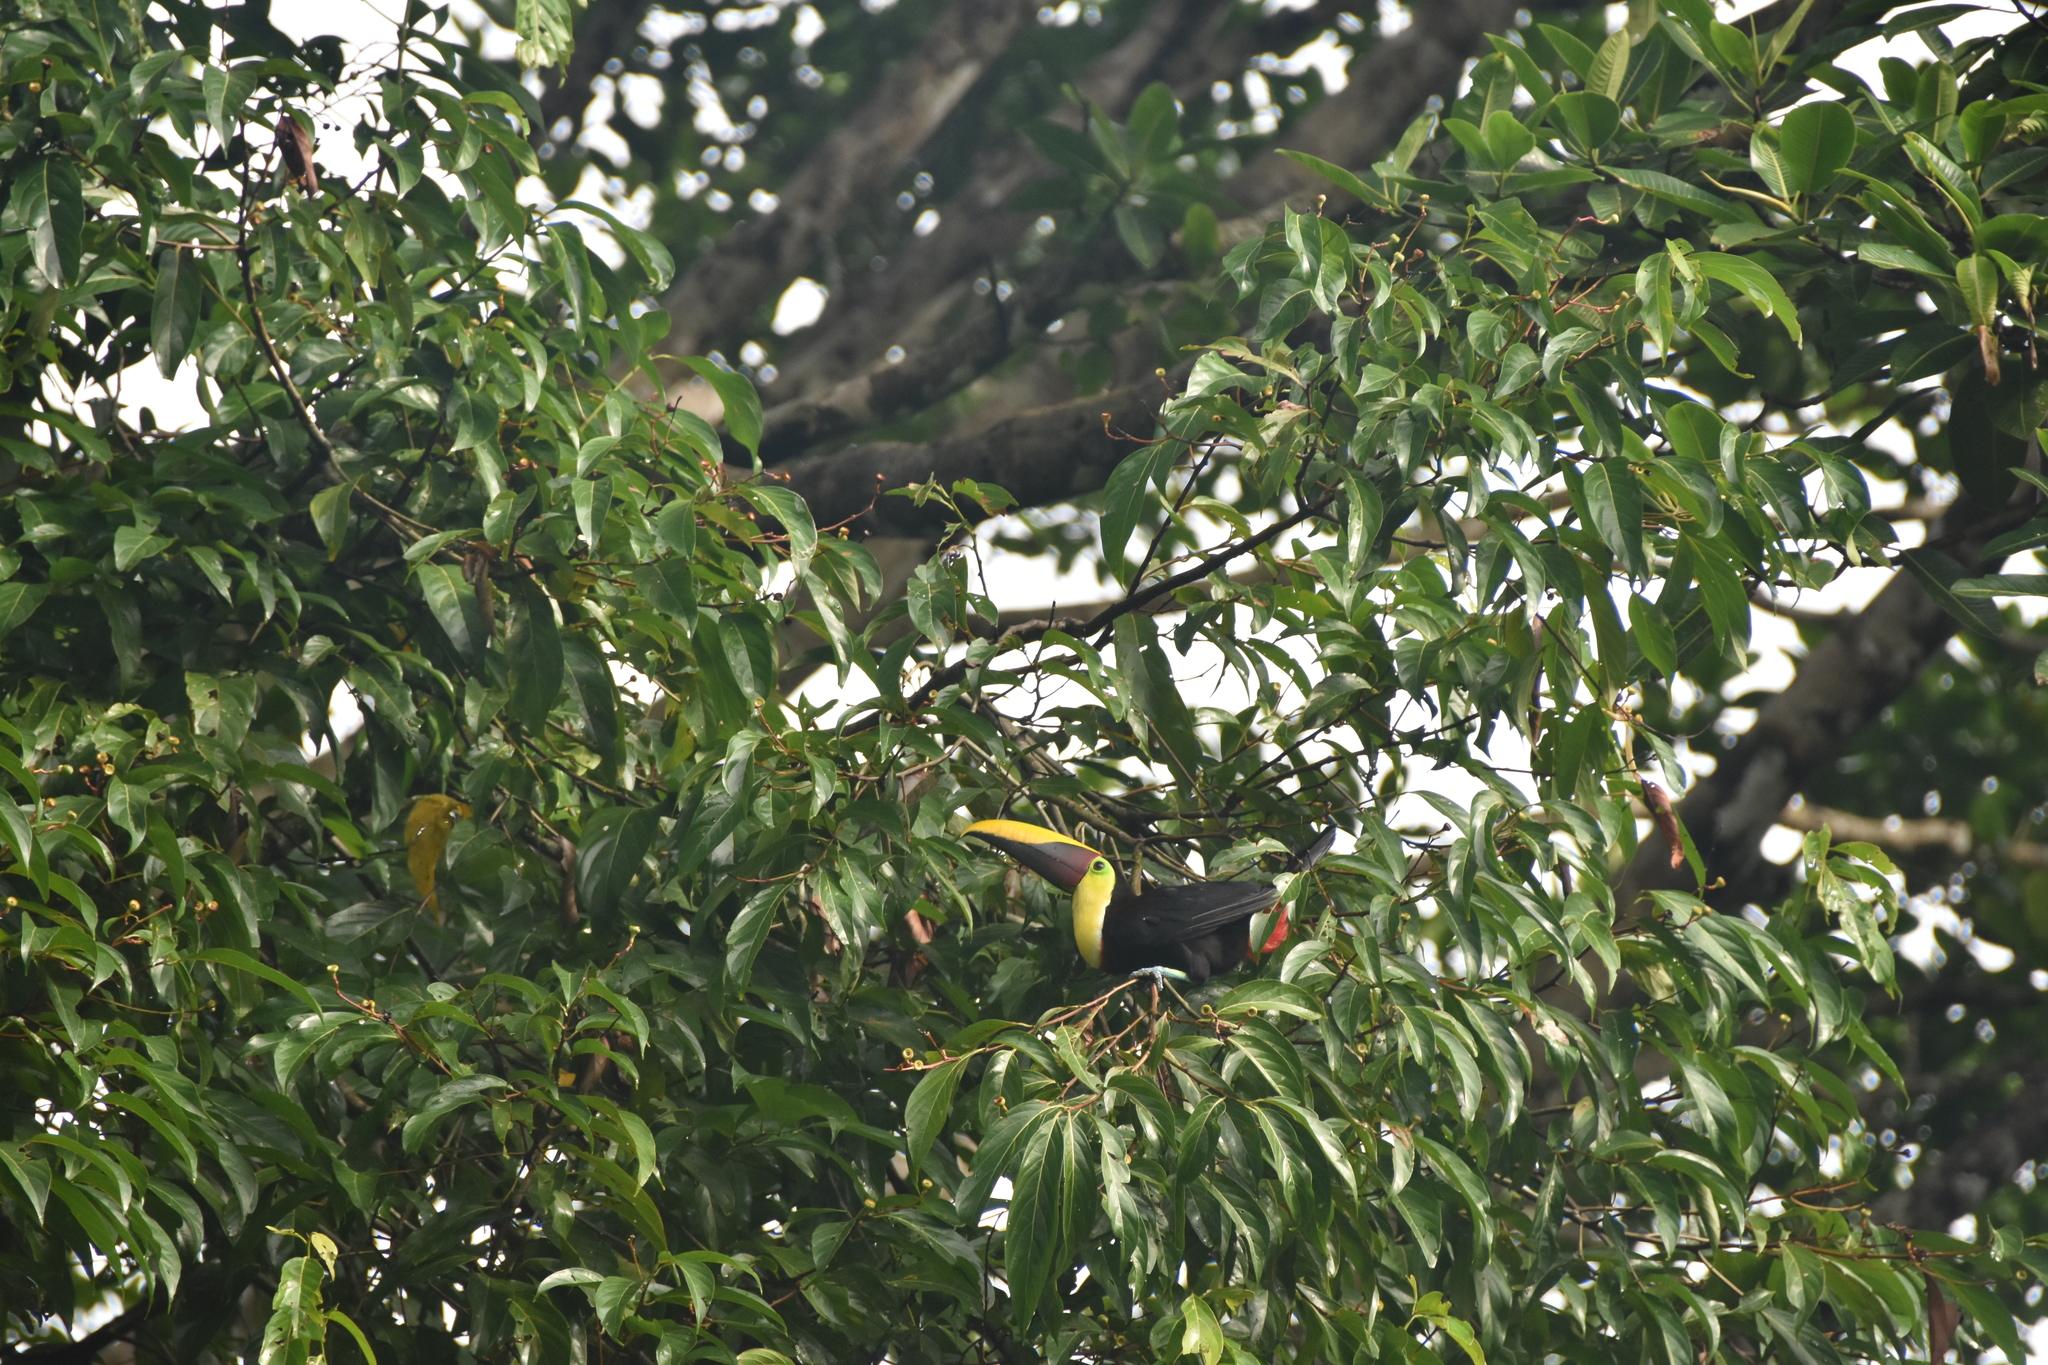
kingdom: Animalia
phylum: Chordata
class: Aves
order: Piciformes
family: Ramphastidae
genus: Ramphastos
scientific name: Ramphastos ambiguus
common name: Yellow-throated toucan
